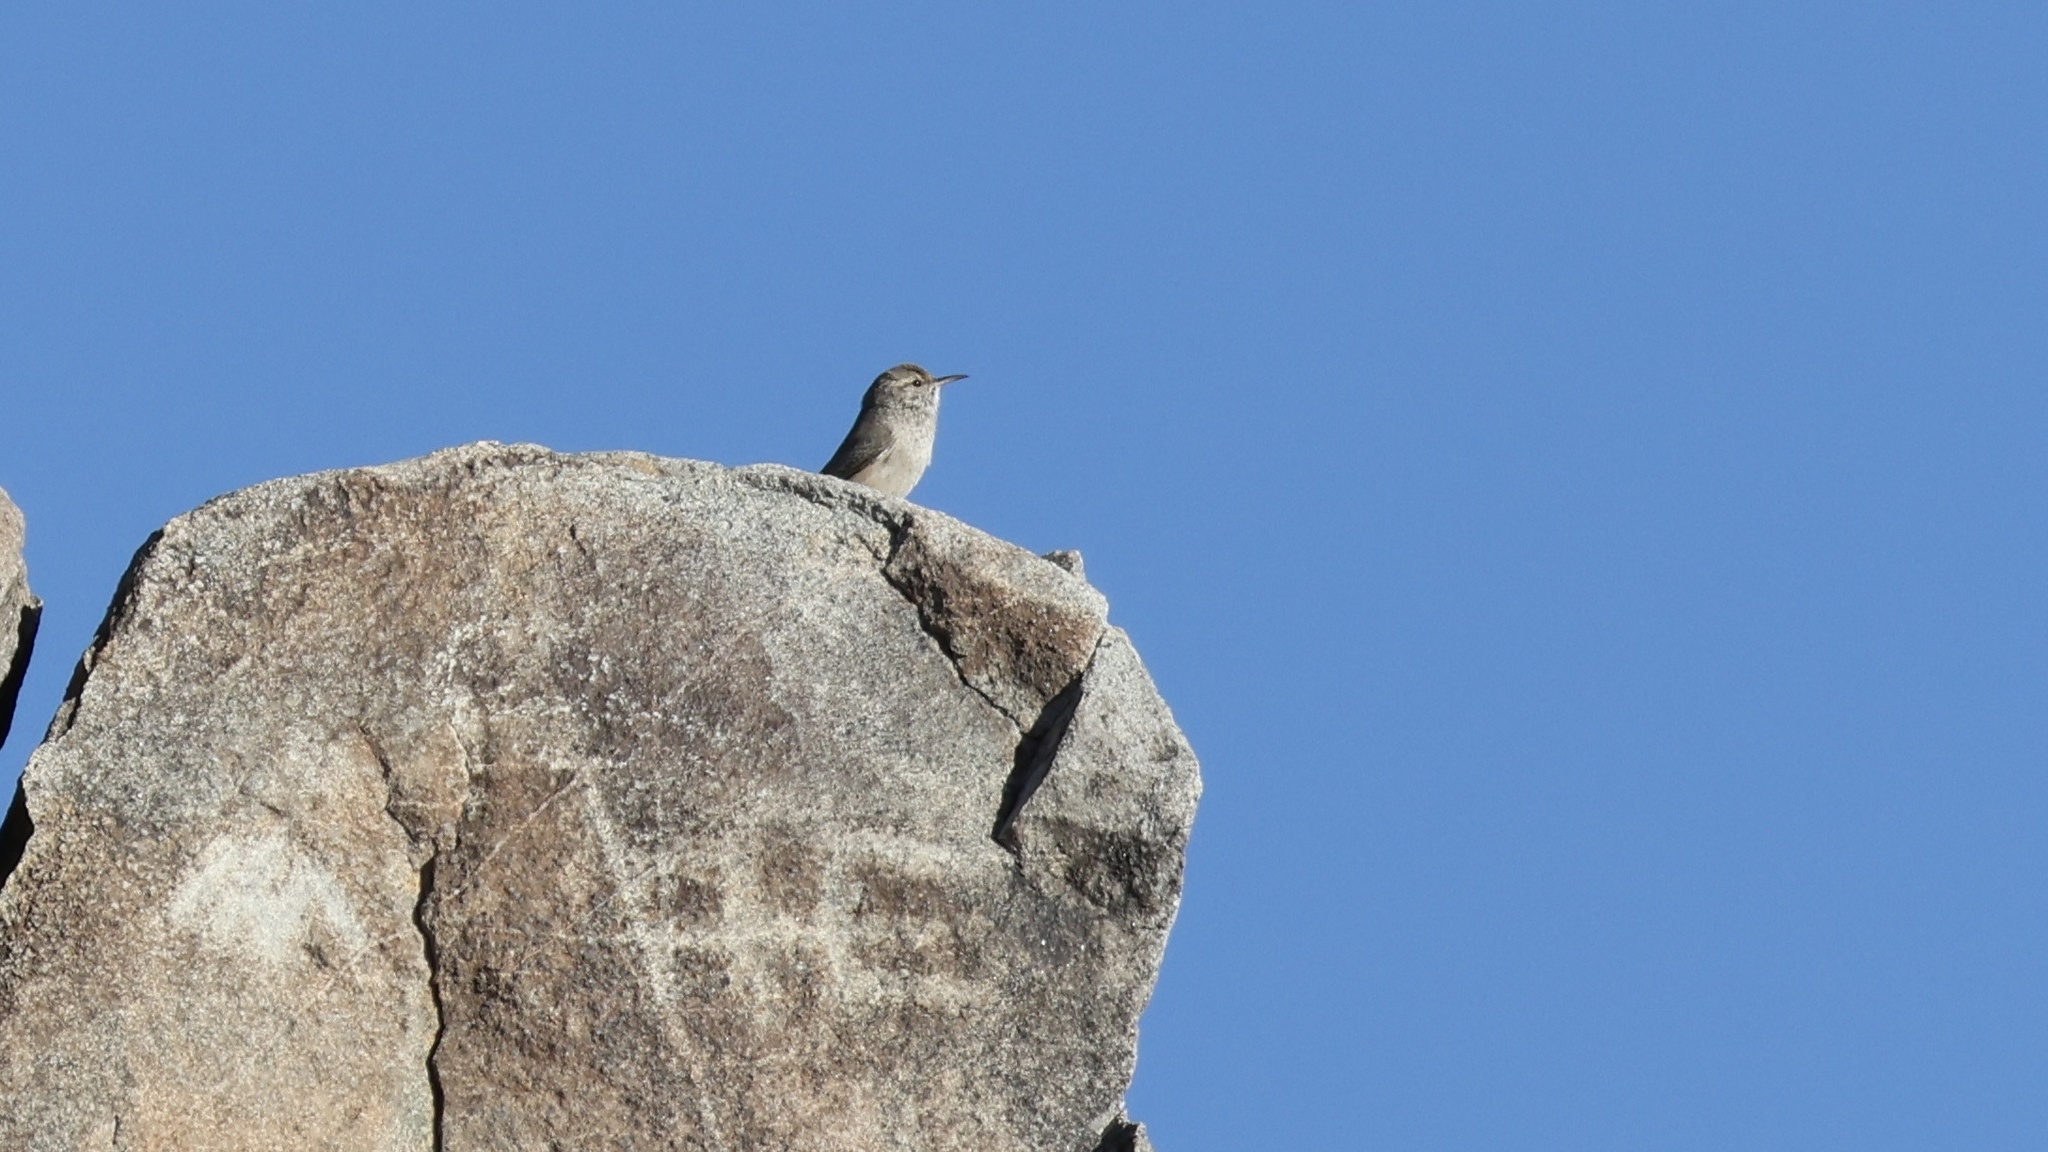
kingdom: Animalia
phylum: Chordata
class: Aves
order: Passeriformes
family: Troglodytidae
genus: Salpinctes
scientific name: Salpinctes obsoletus
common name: Rock wren
